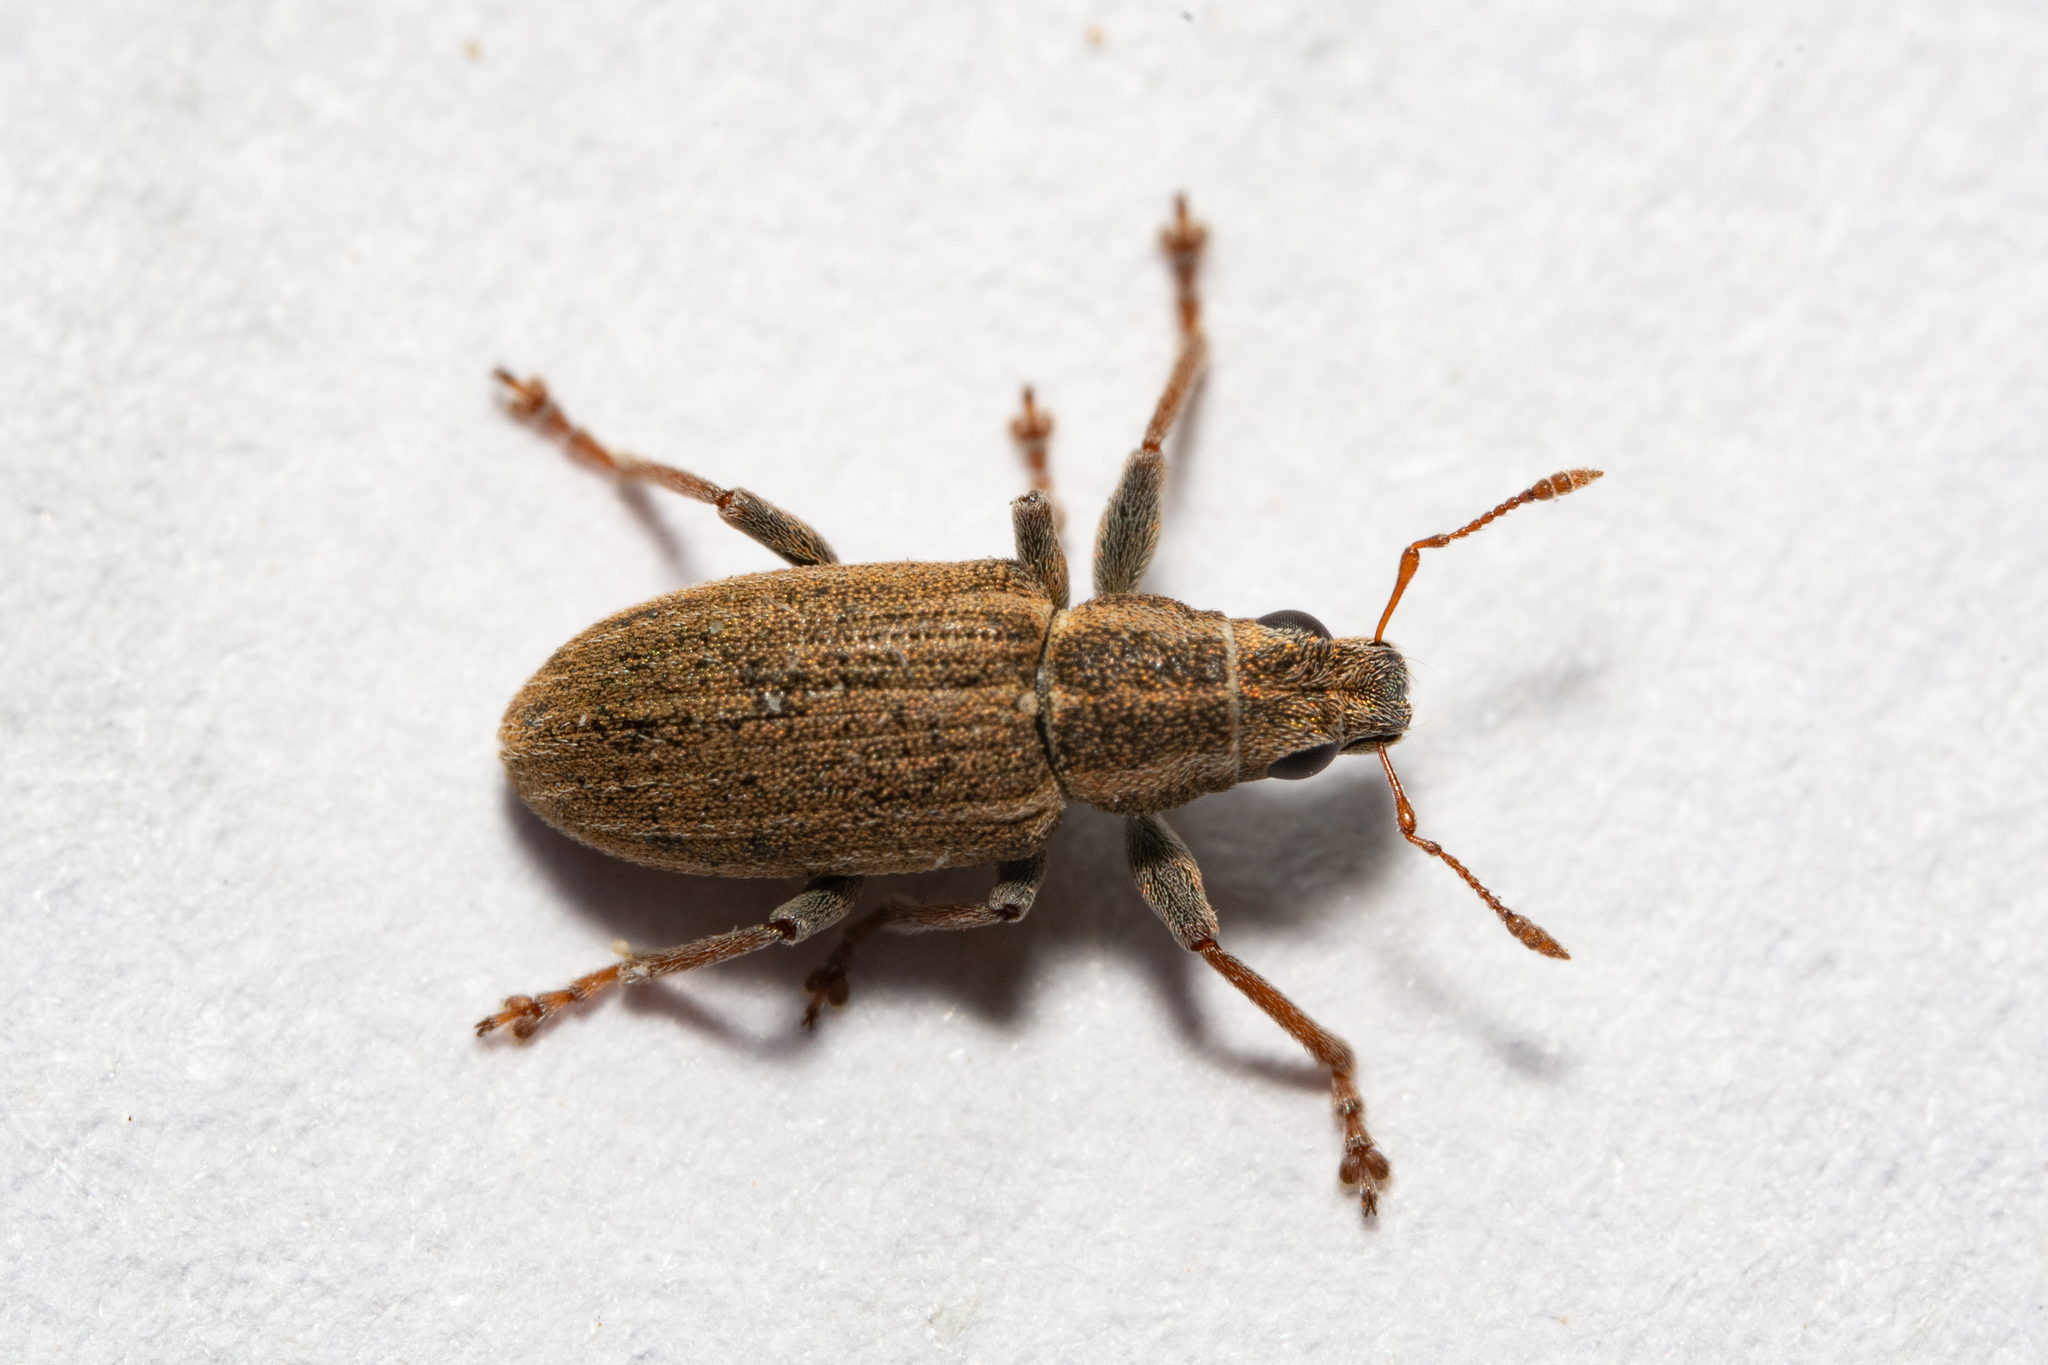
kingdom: Animalia
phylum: Arthropoda
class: Insecta
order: Coleoptera
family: Curculionidae
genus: Sitona
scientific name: Sitona lineatus
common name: Weevil
